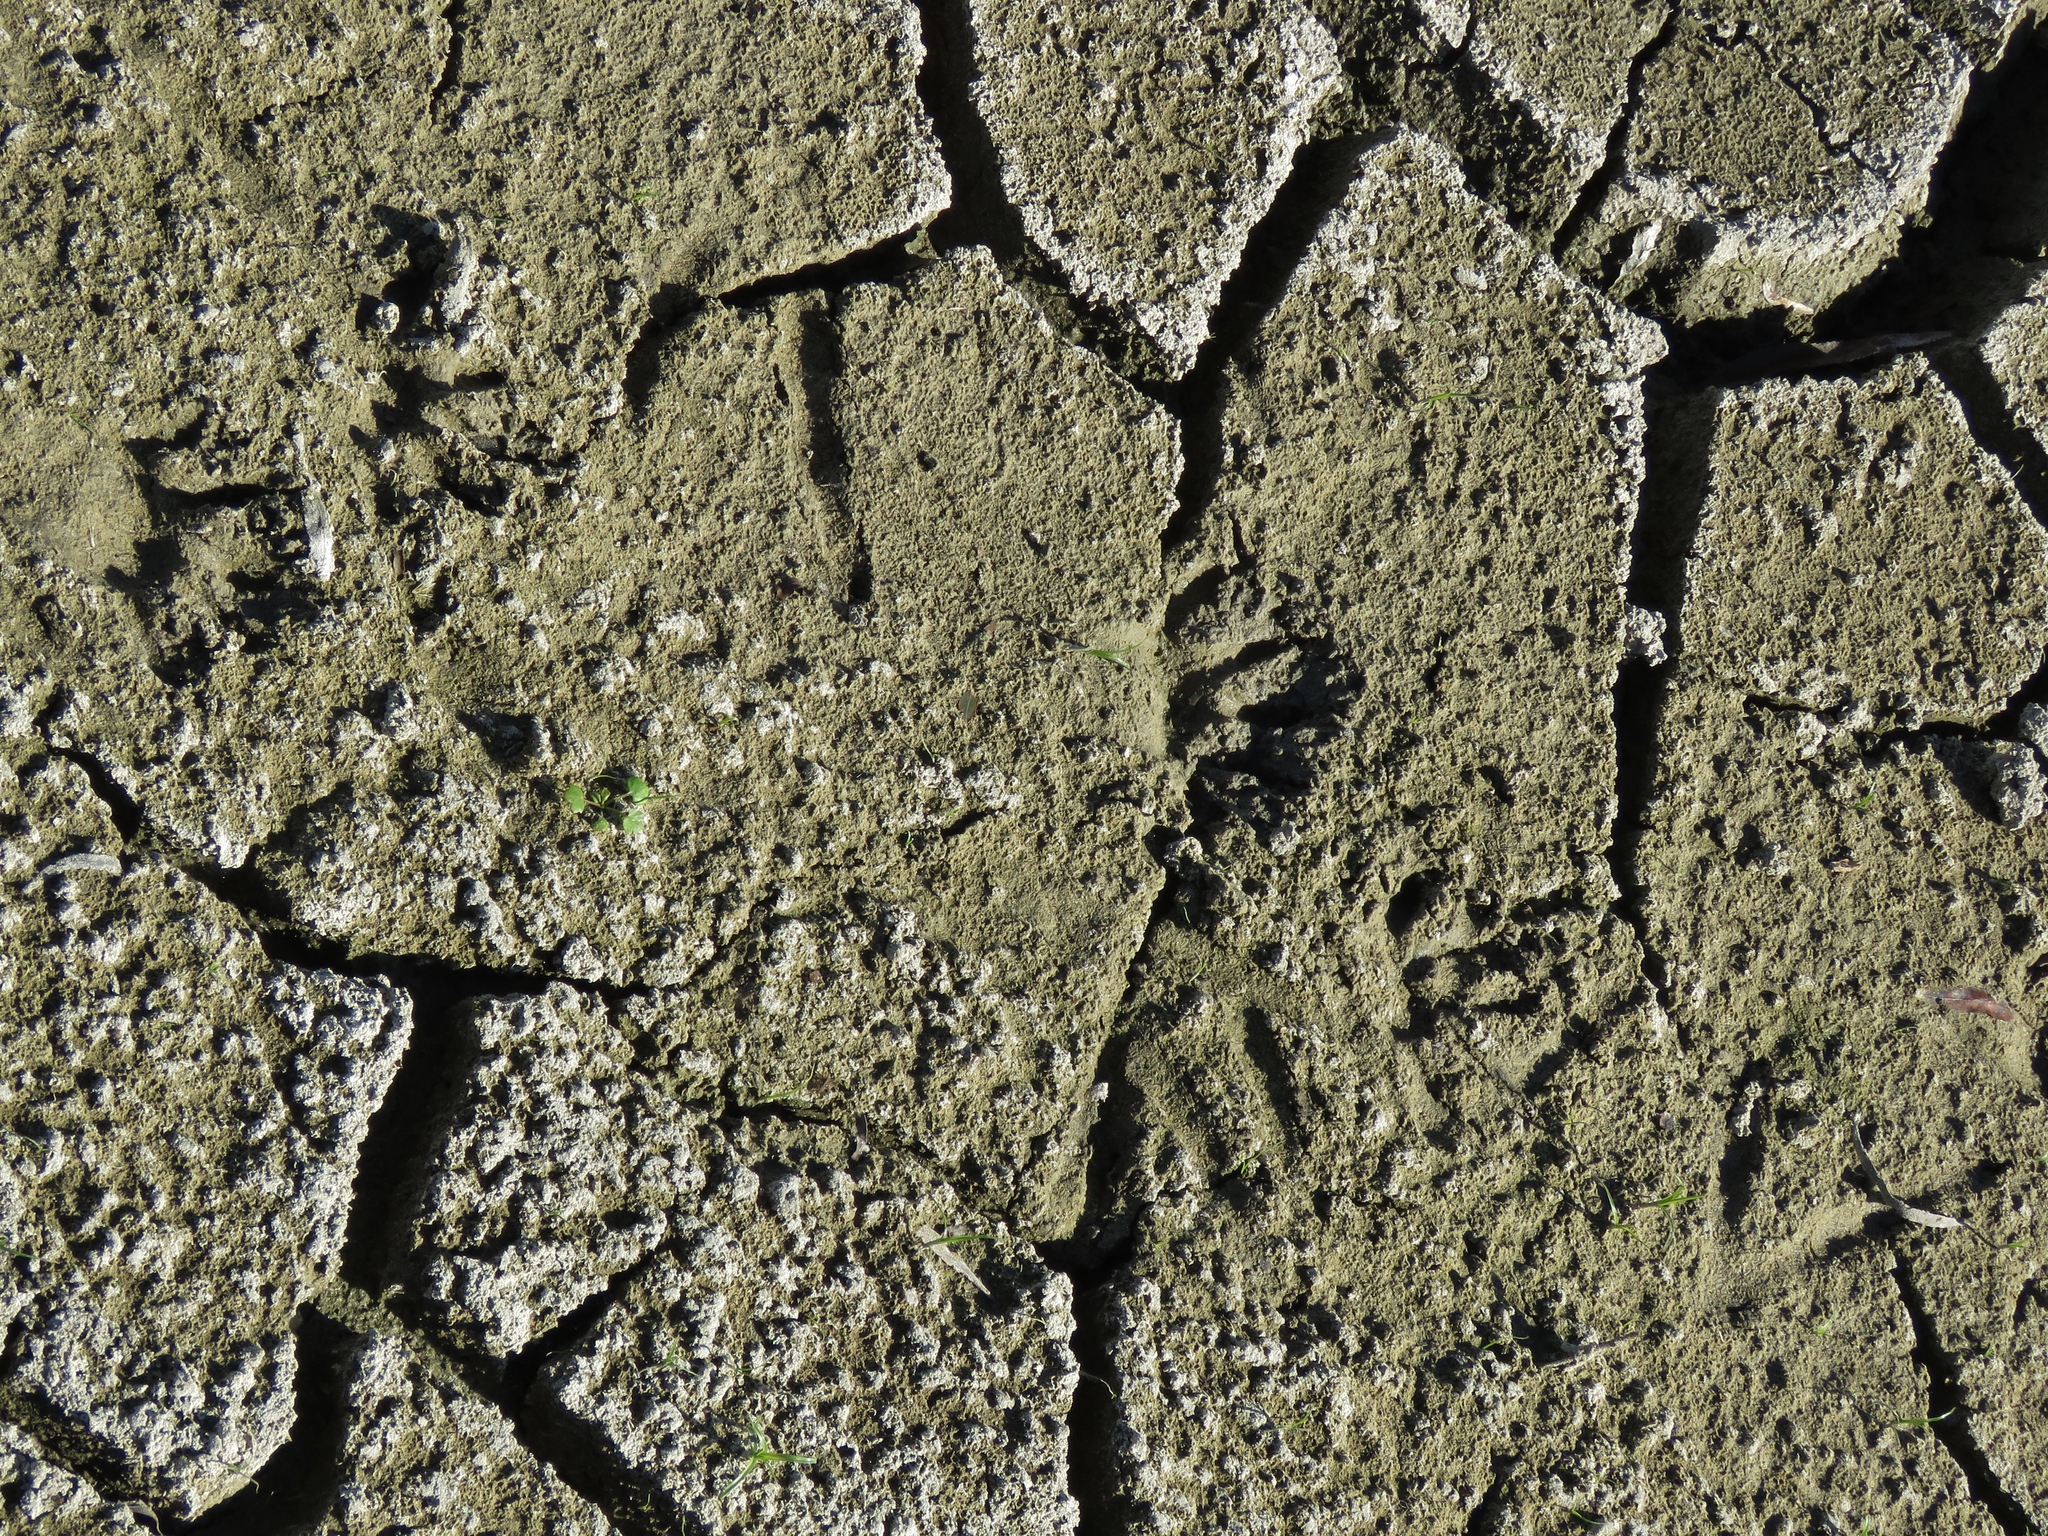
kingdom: Animalia
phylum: Chordata
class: Mammalia
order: Carnivora
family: Procyonidae
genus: Procyon
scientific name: Procyon lotor
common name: Raccoon
